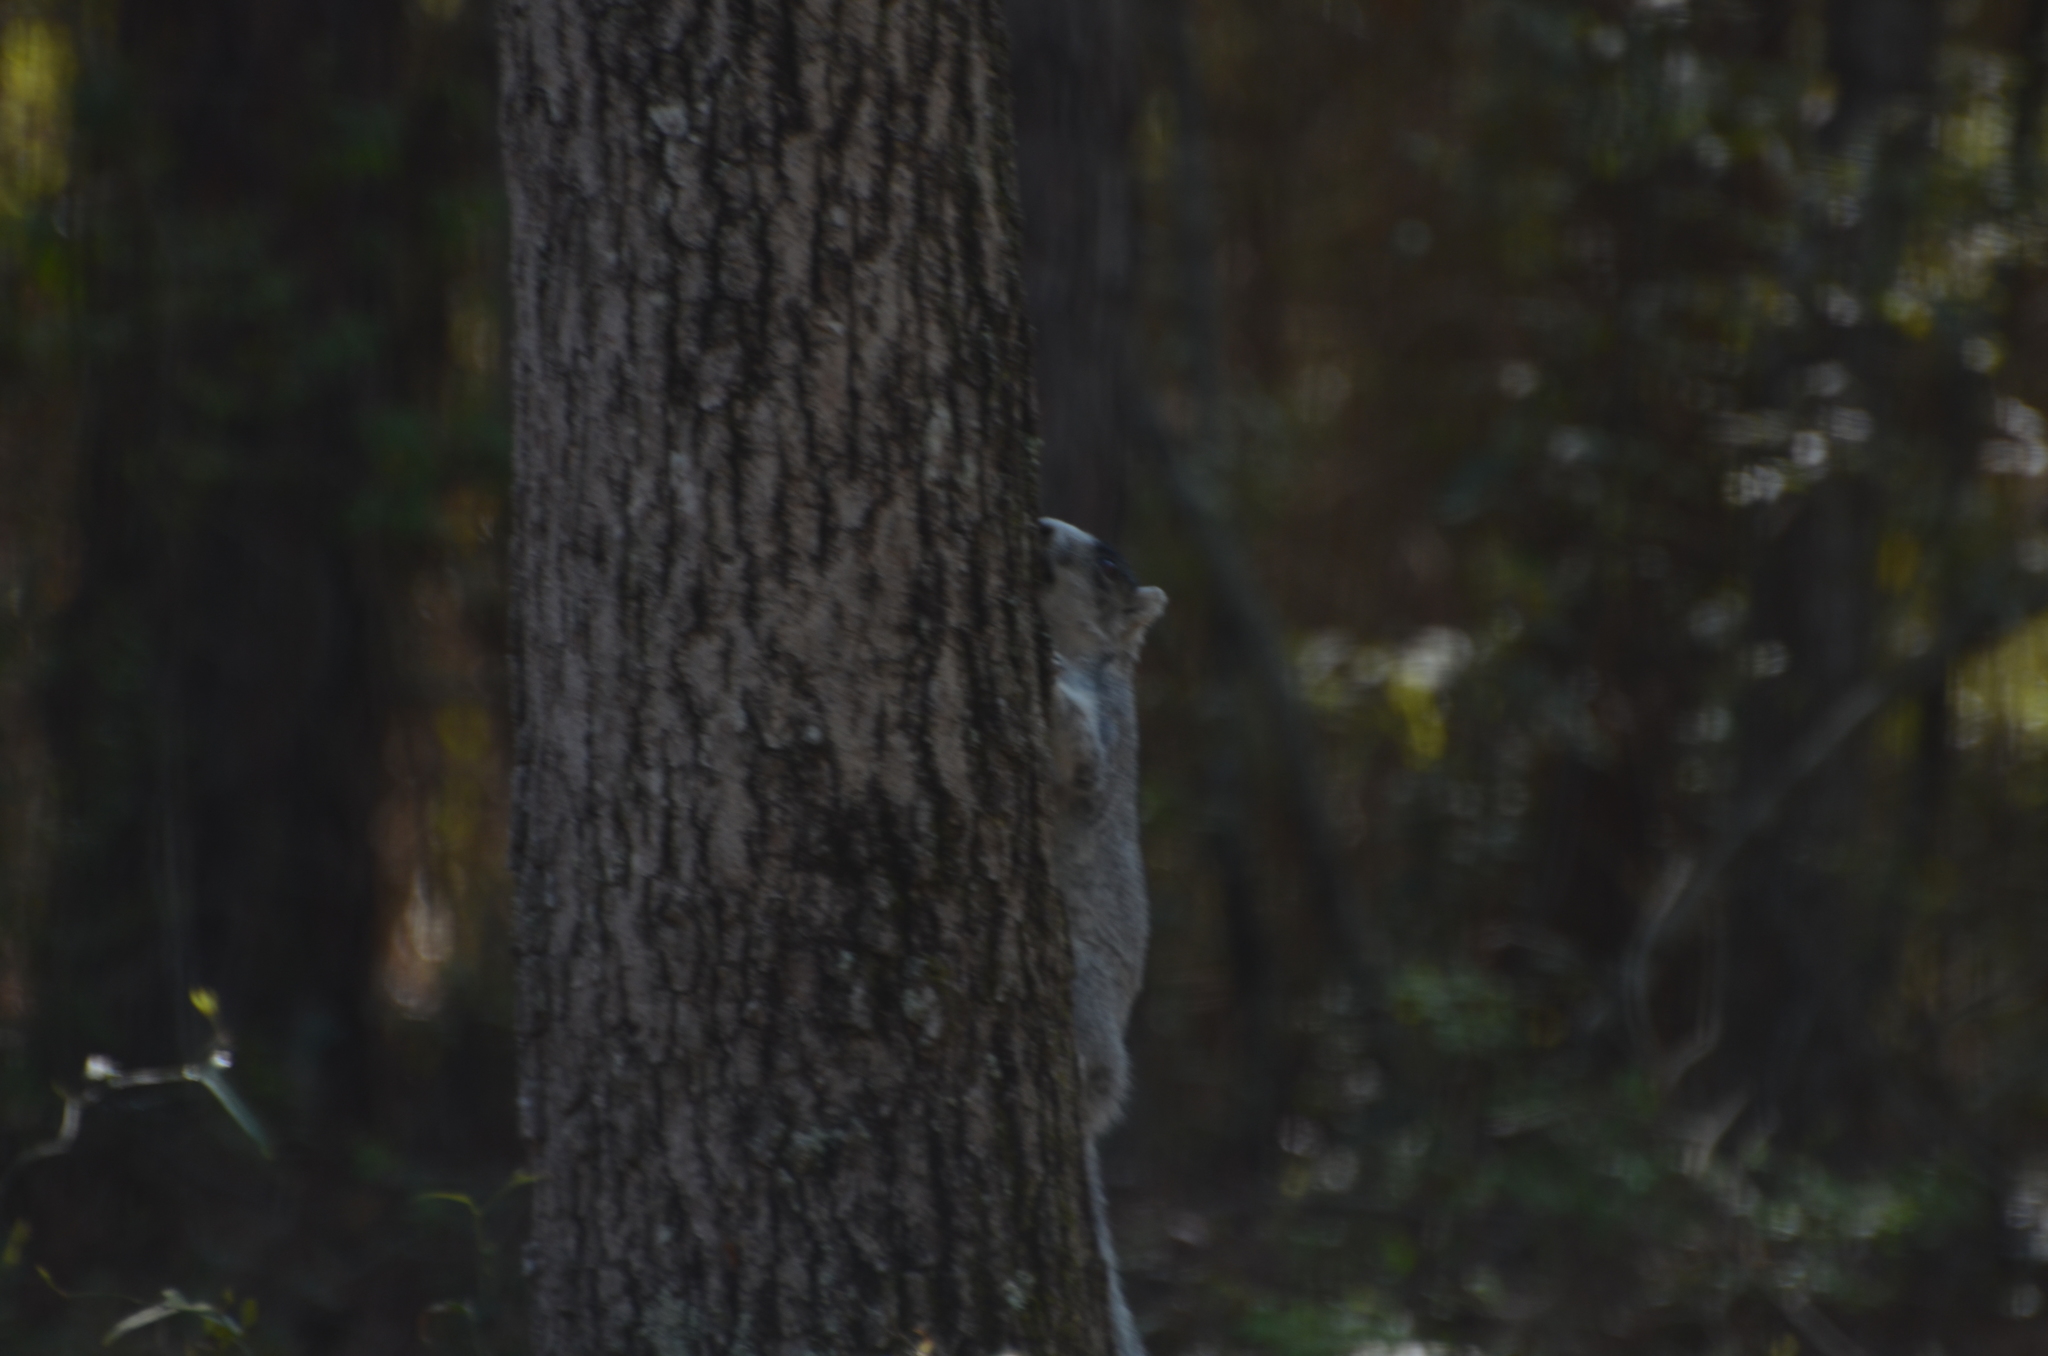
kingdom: Animalia
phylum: Chordata
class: Mammalia
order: Rodentia
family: Sciuridae
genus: Sciurus
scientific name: Sciurus niger
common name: Fox squirrel
